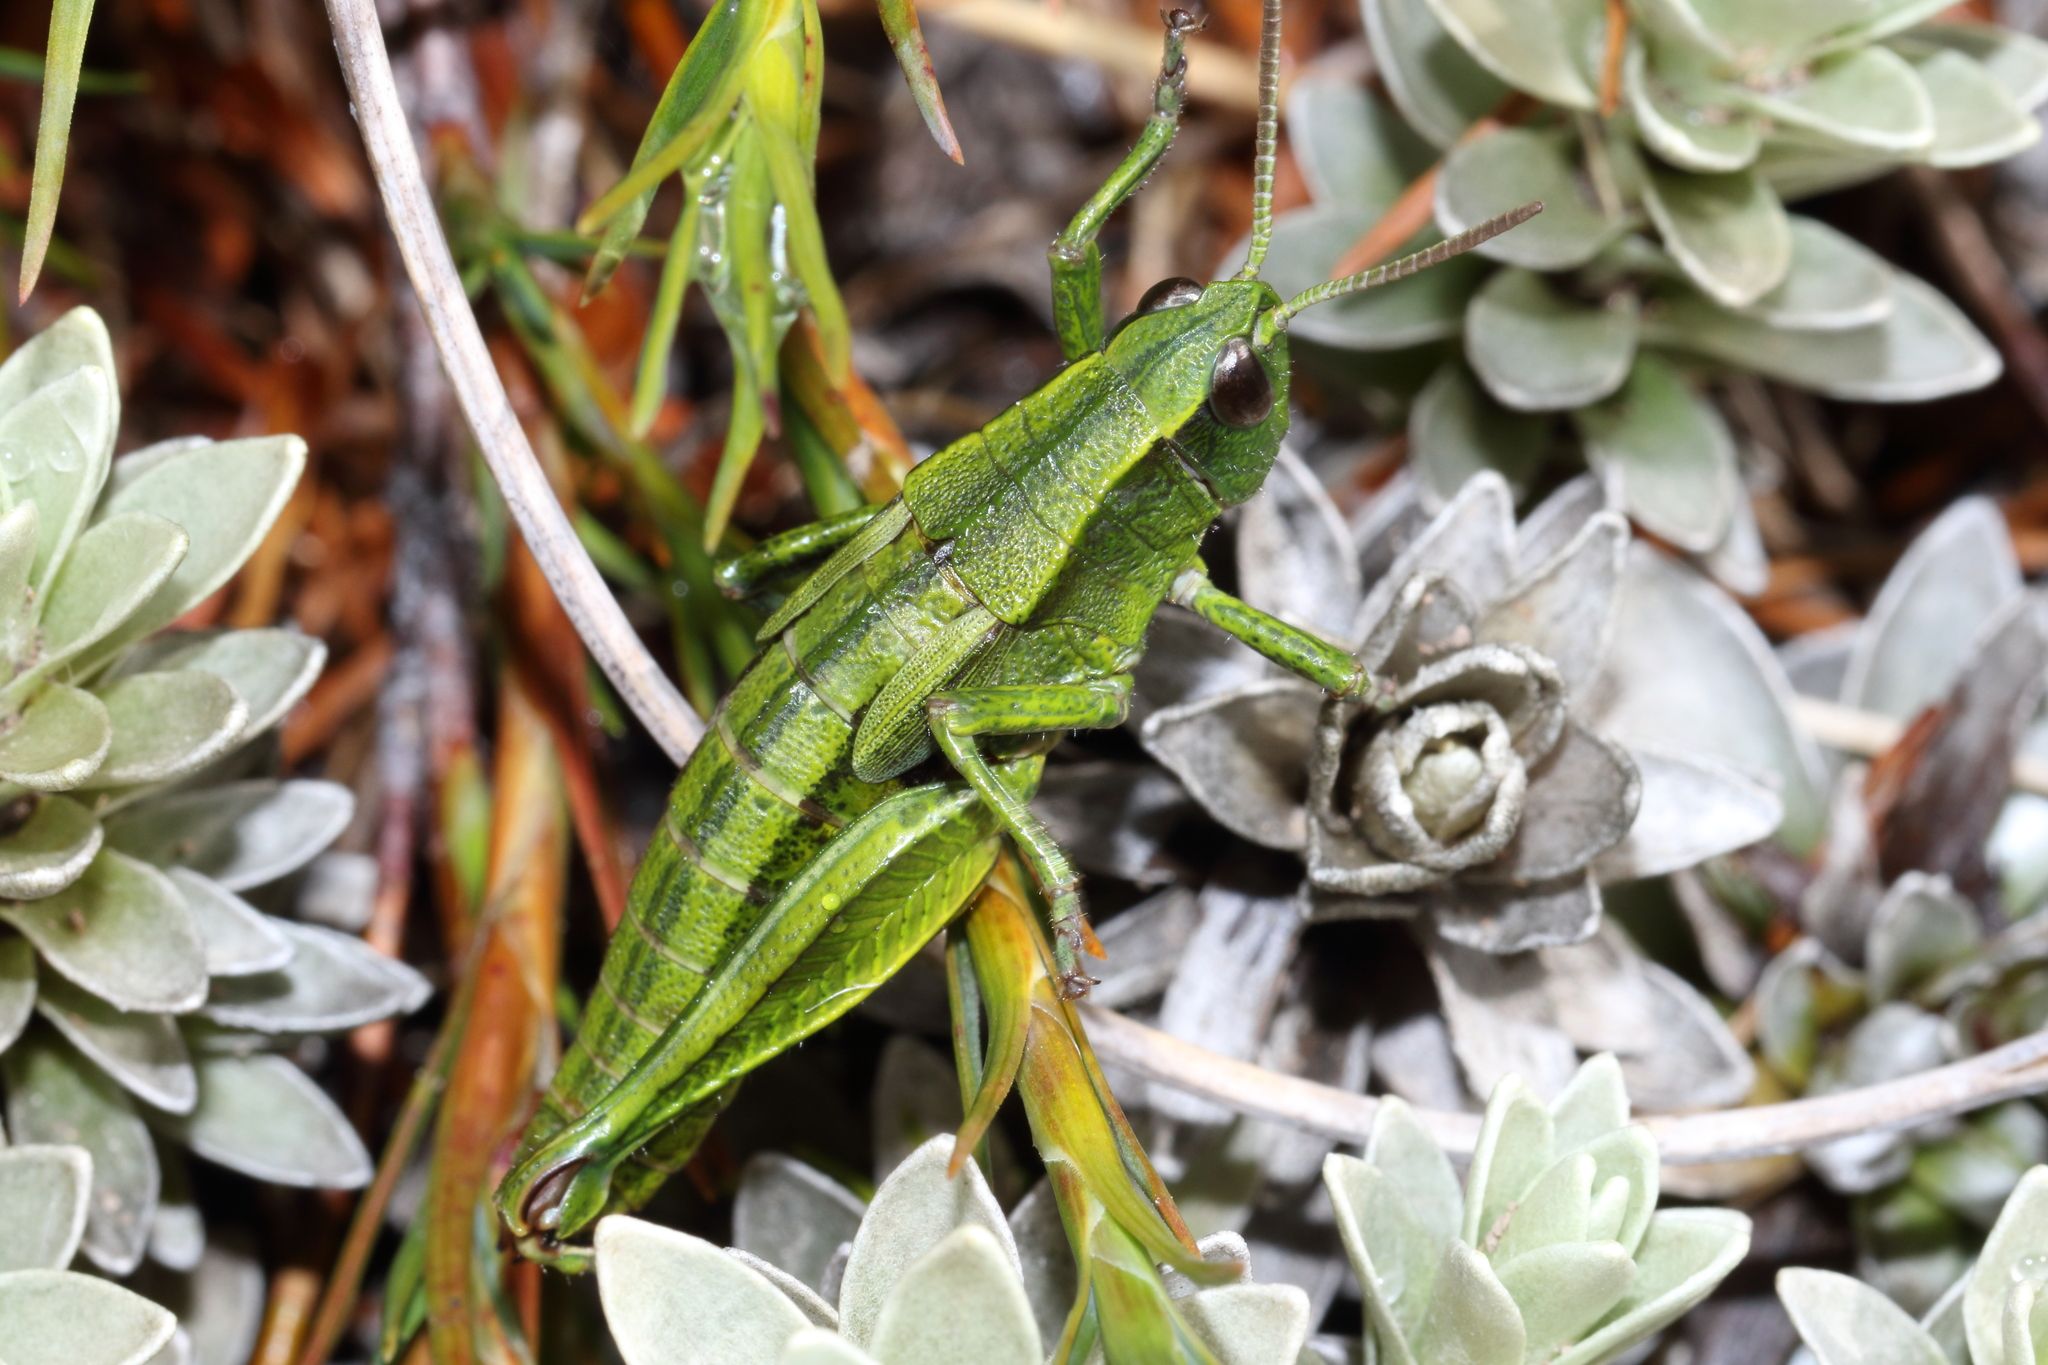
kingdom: Animalia
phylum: Arthropoda
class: Insecta
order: Orthoptera
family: Acrididae
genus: Sigaus
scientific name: Sigaus piliferus
